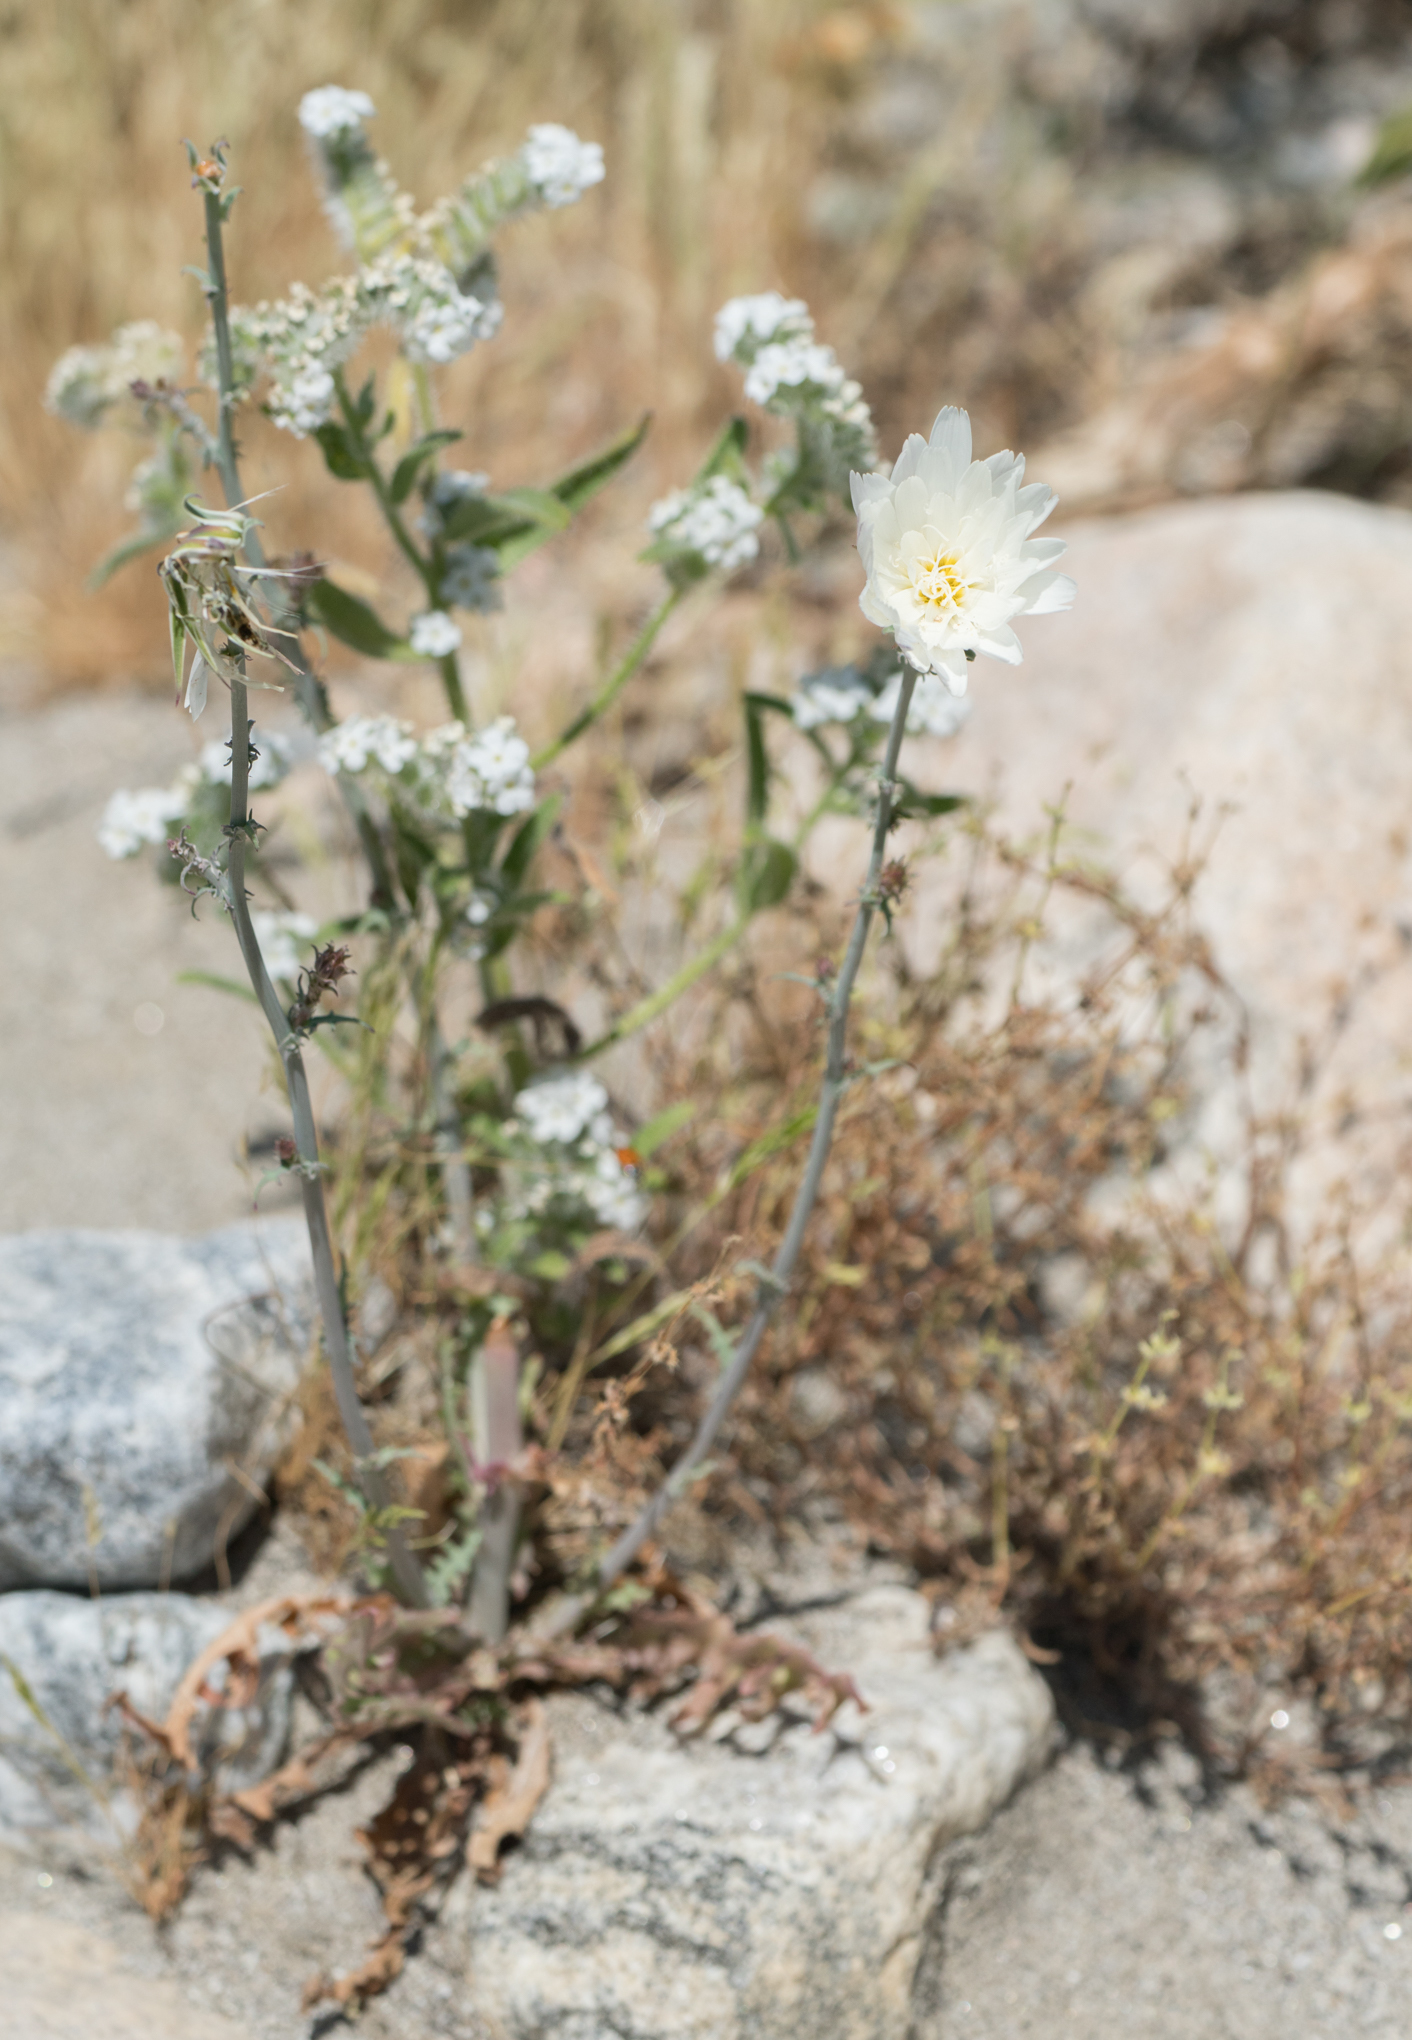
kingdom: Plantae
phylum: Tracheophyta
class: Magnoliopsida
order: Asterales
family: Asteraceae
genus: Rafinesquia
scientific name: Rafinesquia neomexicana
